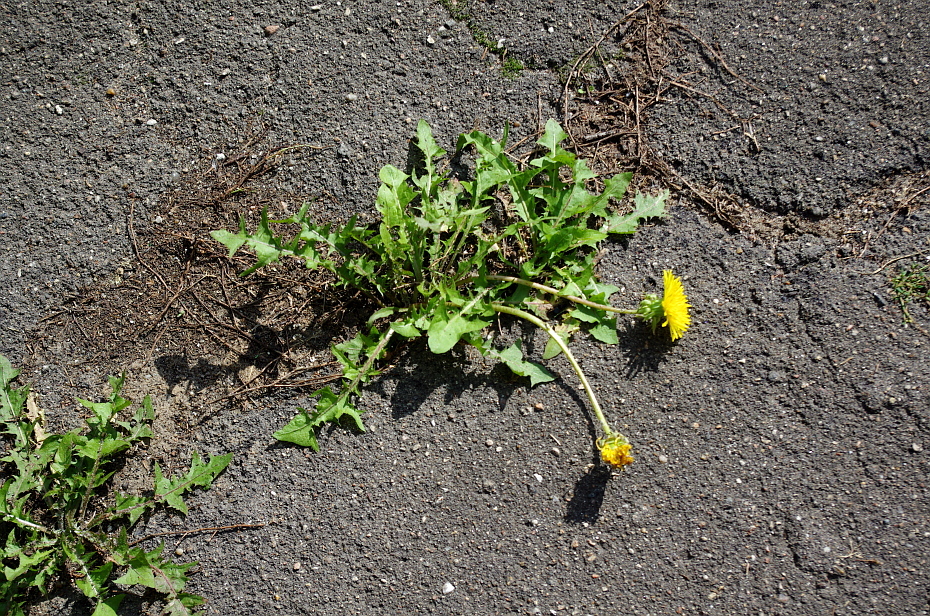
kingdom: Plantae
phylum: Tracheophyta
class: Magnoliopsida
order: Asterales
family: Asteraceae
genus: Taraxacum
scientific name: Taraxacum officinale
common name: Common dandelion
